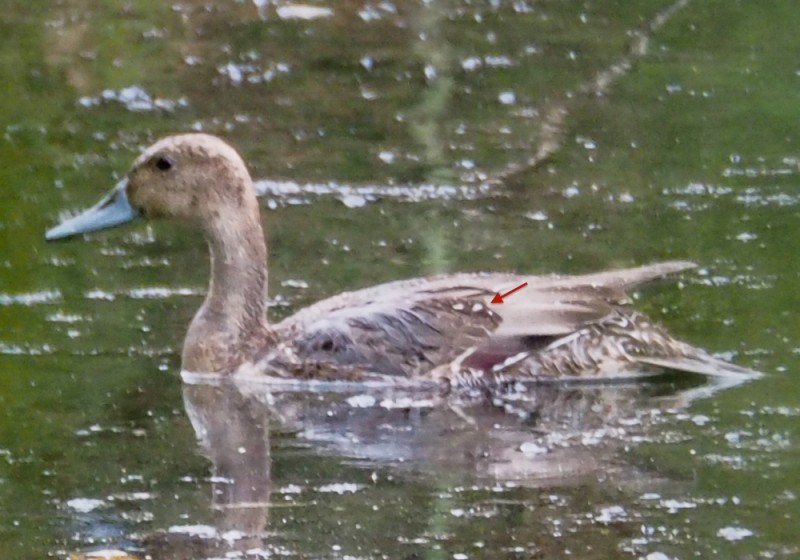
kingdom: Animalia
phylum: Chordata
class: Aves
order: Anseriformes
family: Anatidae
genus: Anas
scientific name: Anas acuta
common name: Northern pintail
